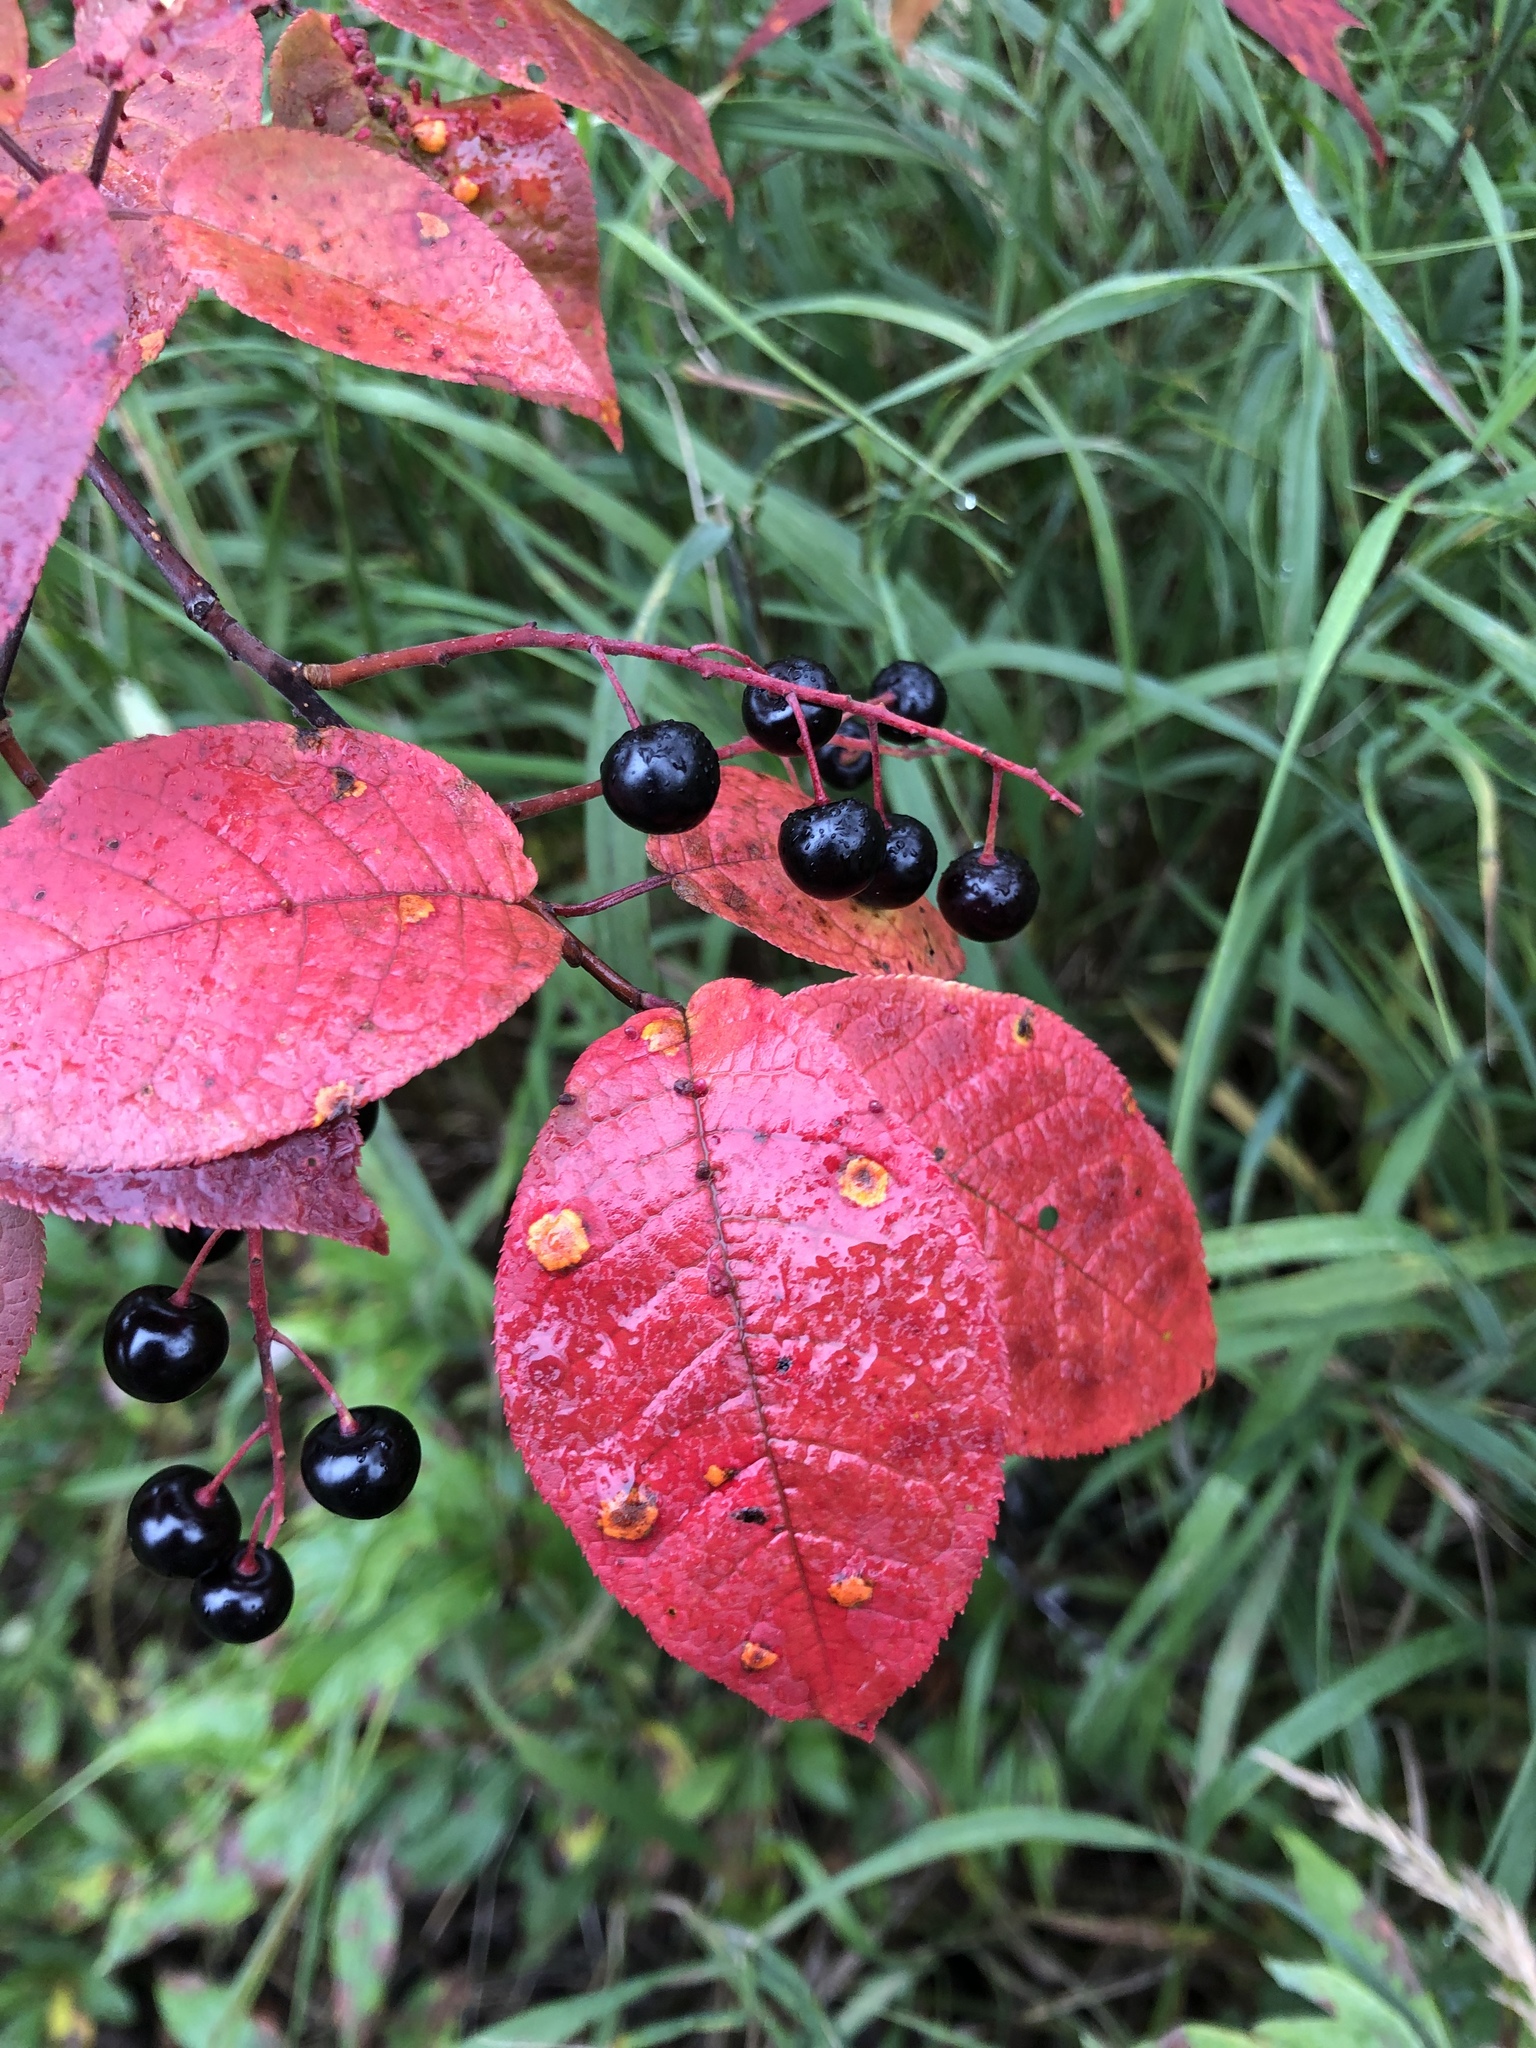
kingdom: Plantae
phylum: Tracheophyta
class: Magnoliopsida
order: Rosales
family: Rosaceae
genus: Prunus
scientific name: Prunus padus
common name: Bird cherry
